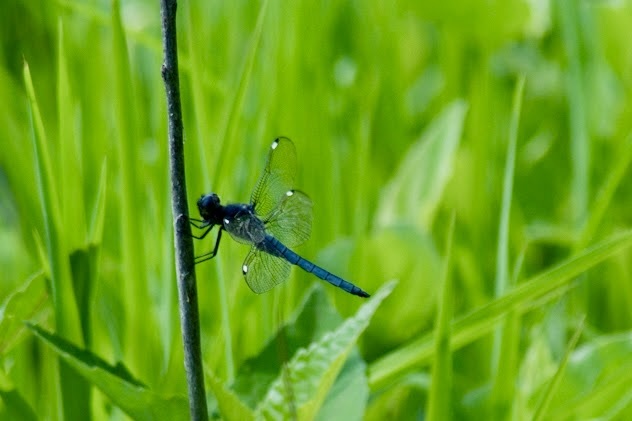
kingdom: Animalia
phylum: Arthropoda
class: Insecta
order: Odonata
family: Libellulidae
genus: Libellula
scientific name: Libellula cyanea
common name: Spangled skimmer
